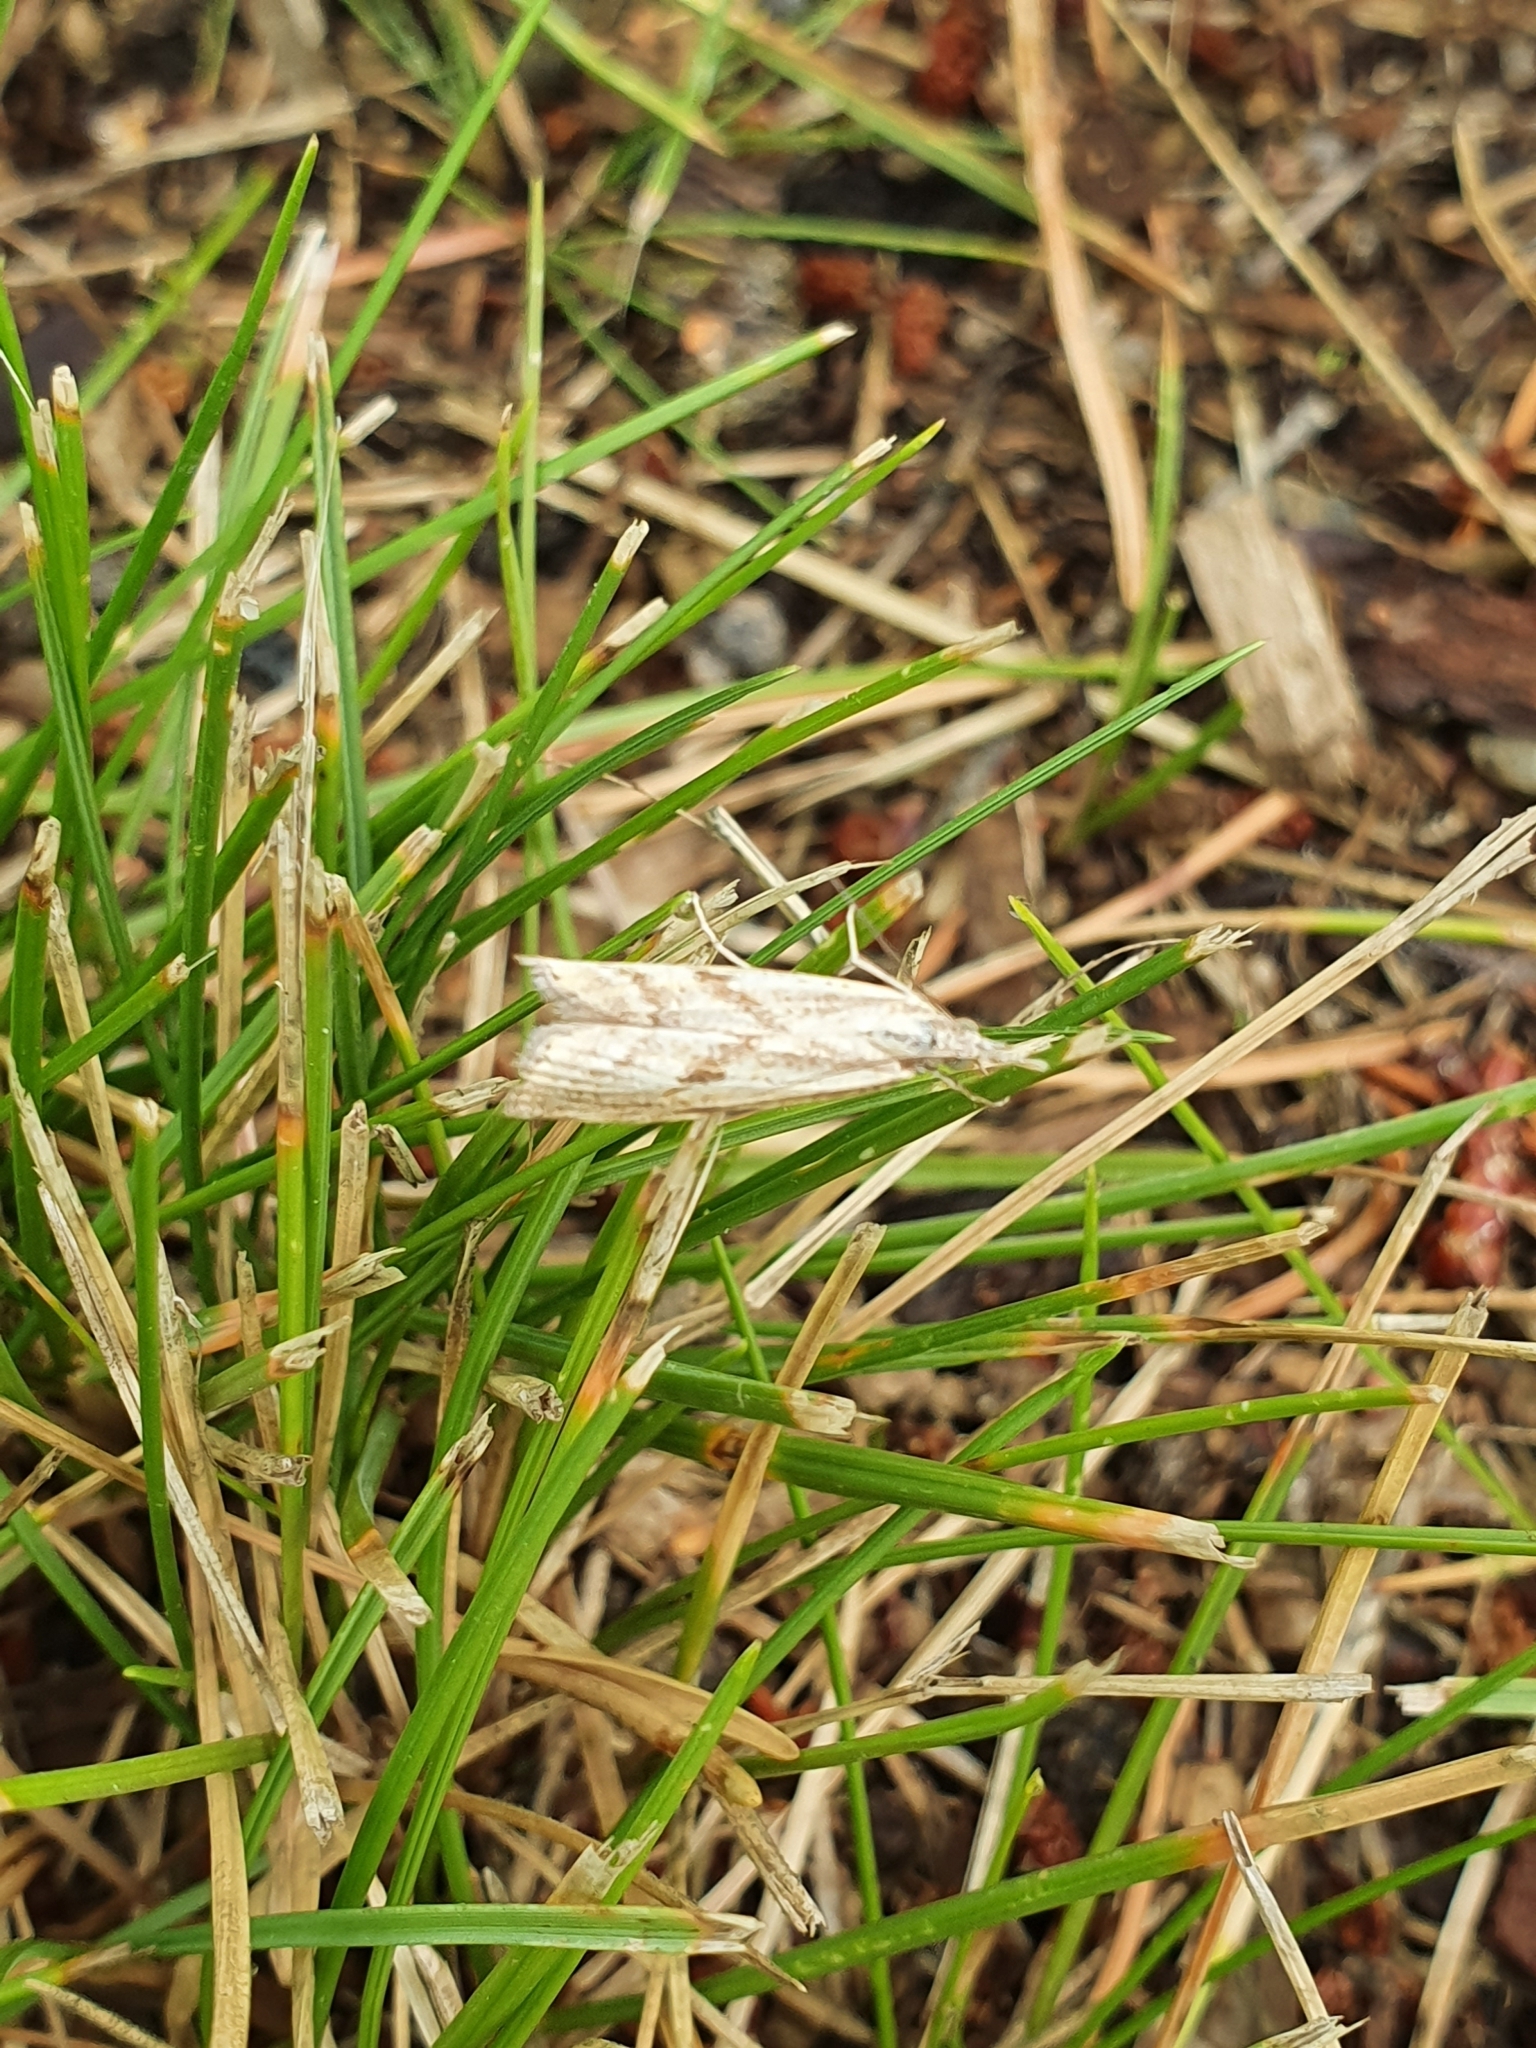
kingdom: Animalia
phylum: Arthropoda
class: Insecta
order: Lepidoptera
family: Crambidae
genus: Agriphila
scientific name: Agriphila inquinatella
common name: Barred grass-veneer
